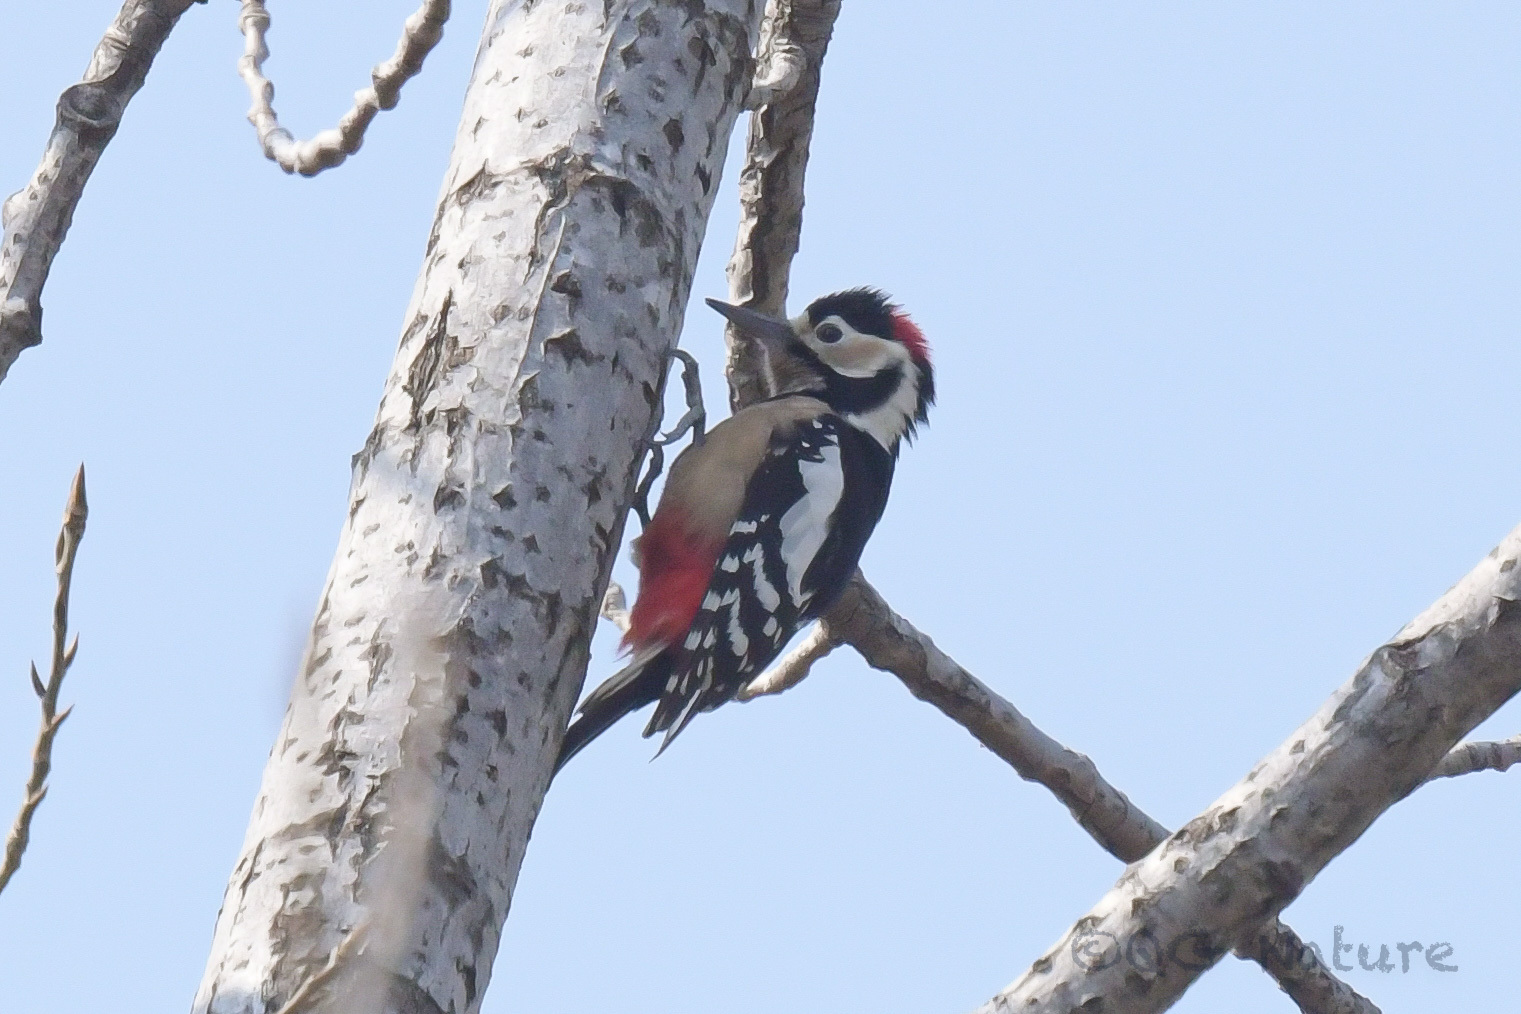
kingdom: Animalia
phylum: Chordata
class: Aves
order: Piciformes
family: Picidae
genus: Dendrocopos
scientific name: Dendrocopos major
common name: Great spotted woodpecker
